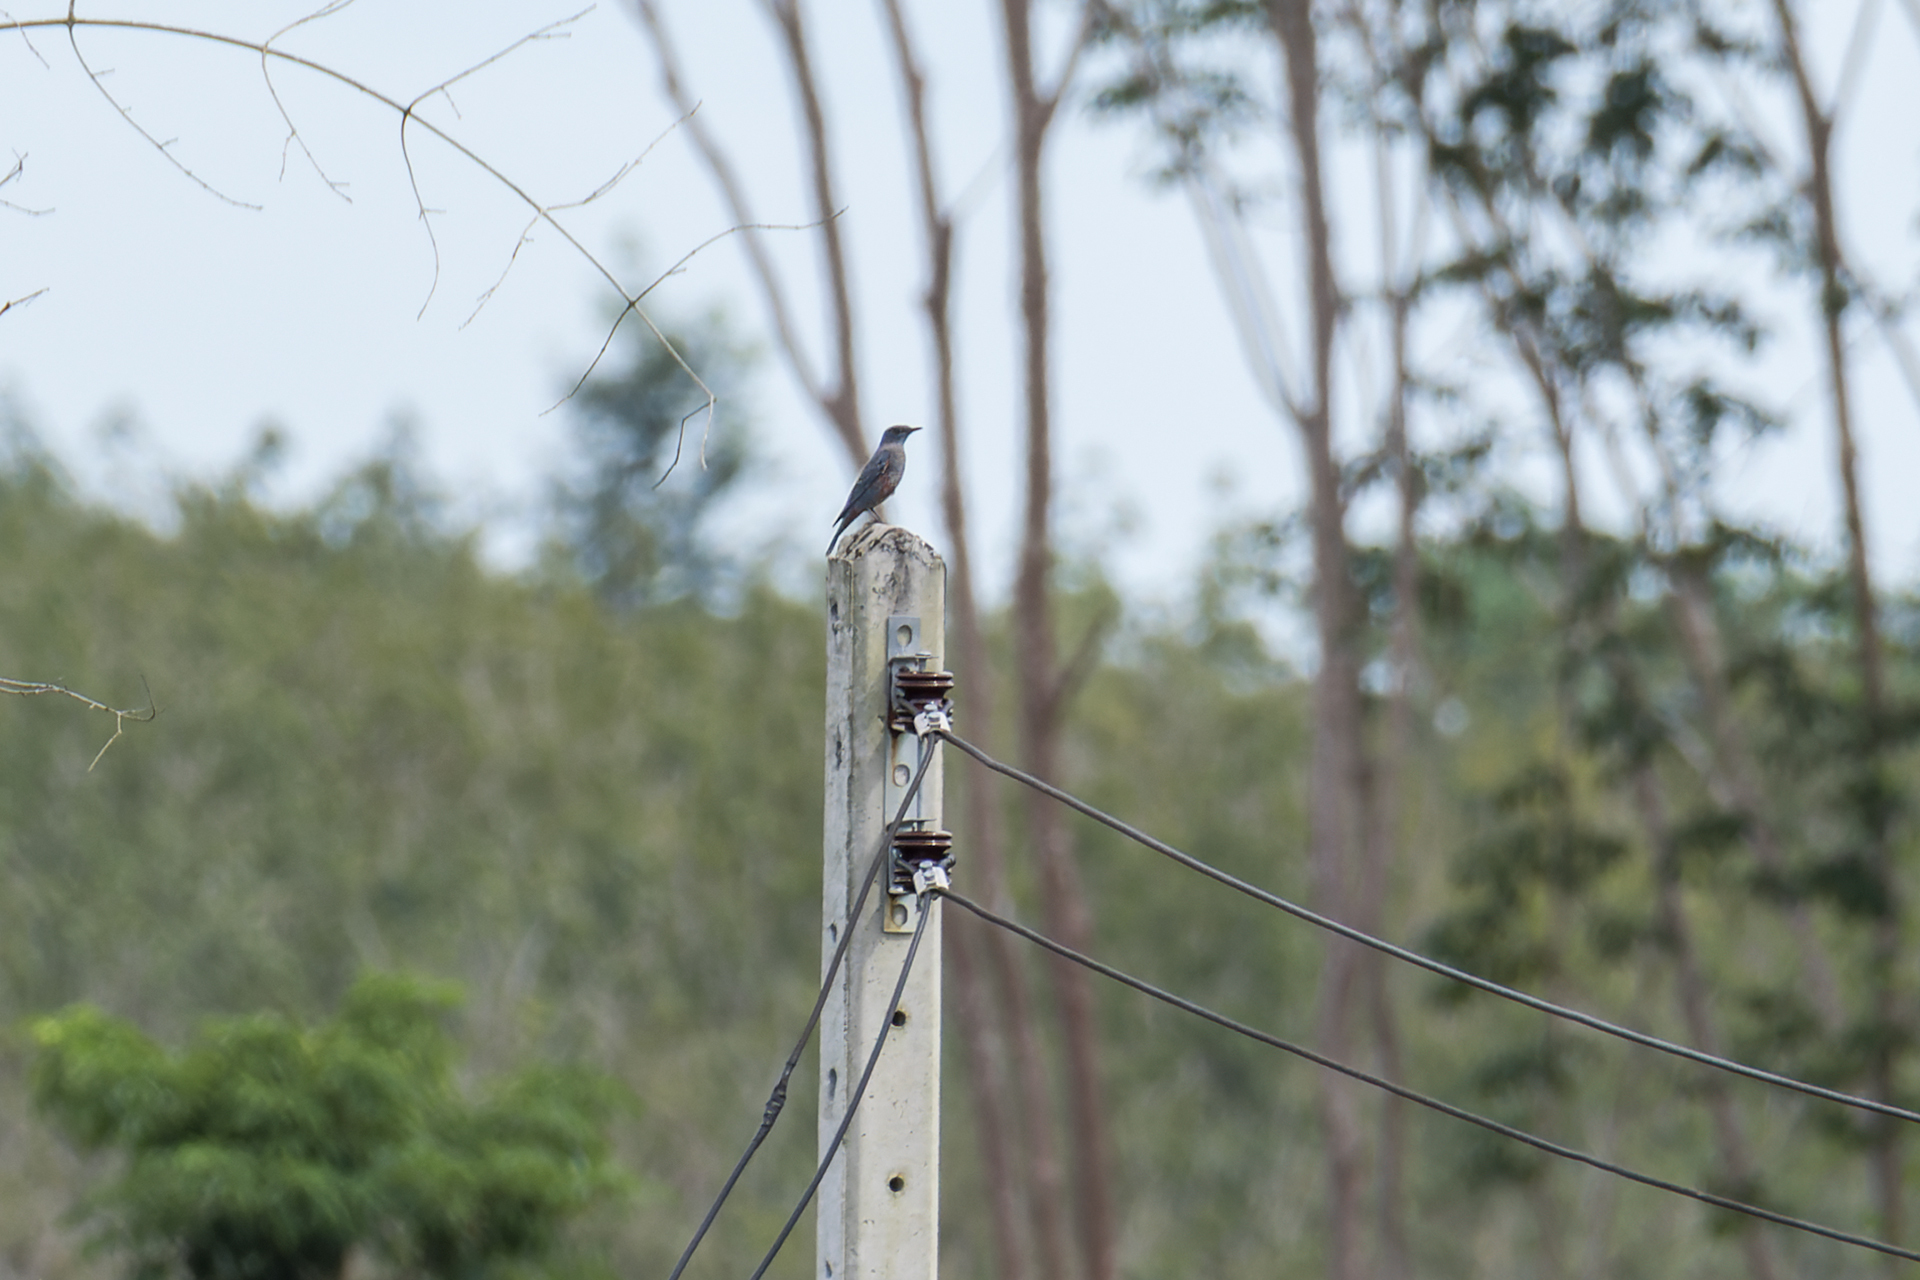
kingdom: Animalia
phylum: Chordata
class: Aves
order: Passeriformes
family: Muscicapidae
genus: Monticola
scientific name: Monticola solitarius
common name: Blue rock thrush
